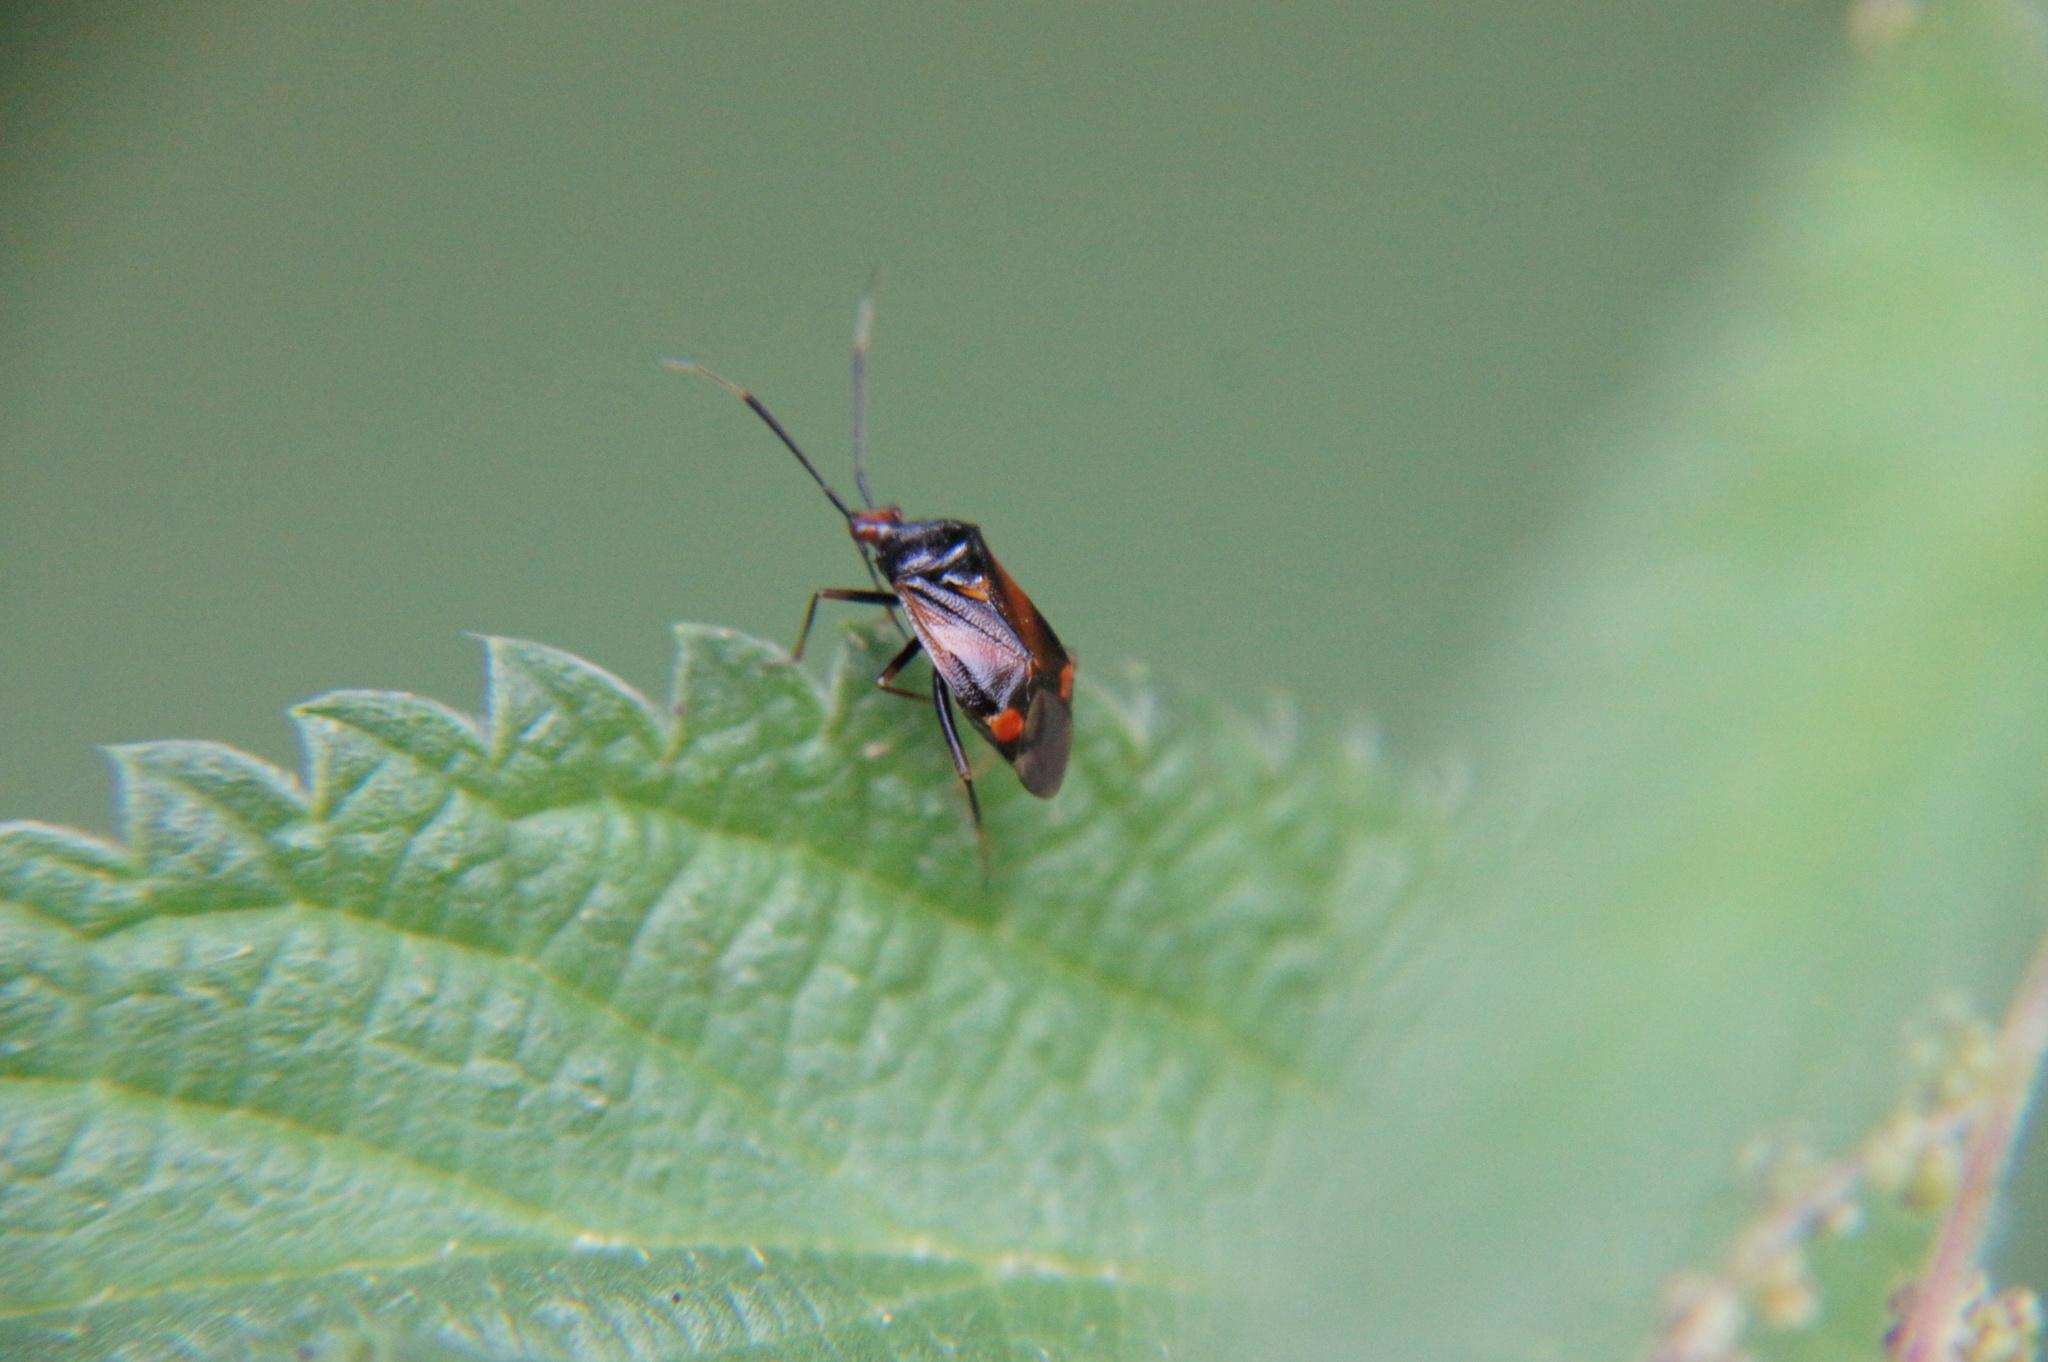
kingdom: Animalia
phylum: Arthropoda
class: Insecta
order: Hemiptera
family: Miridae
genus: Deraeocoris
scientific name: Deraeocoris ruber
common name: Plant bug
